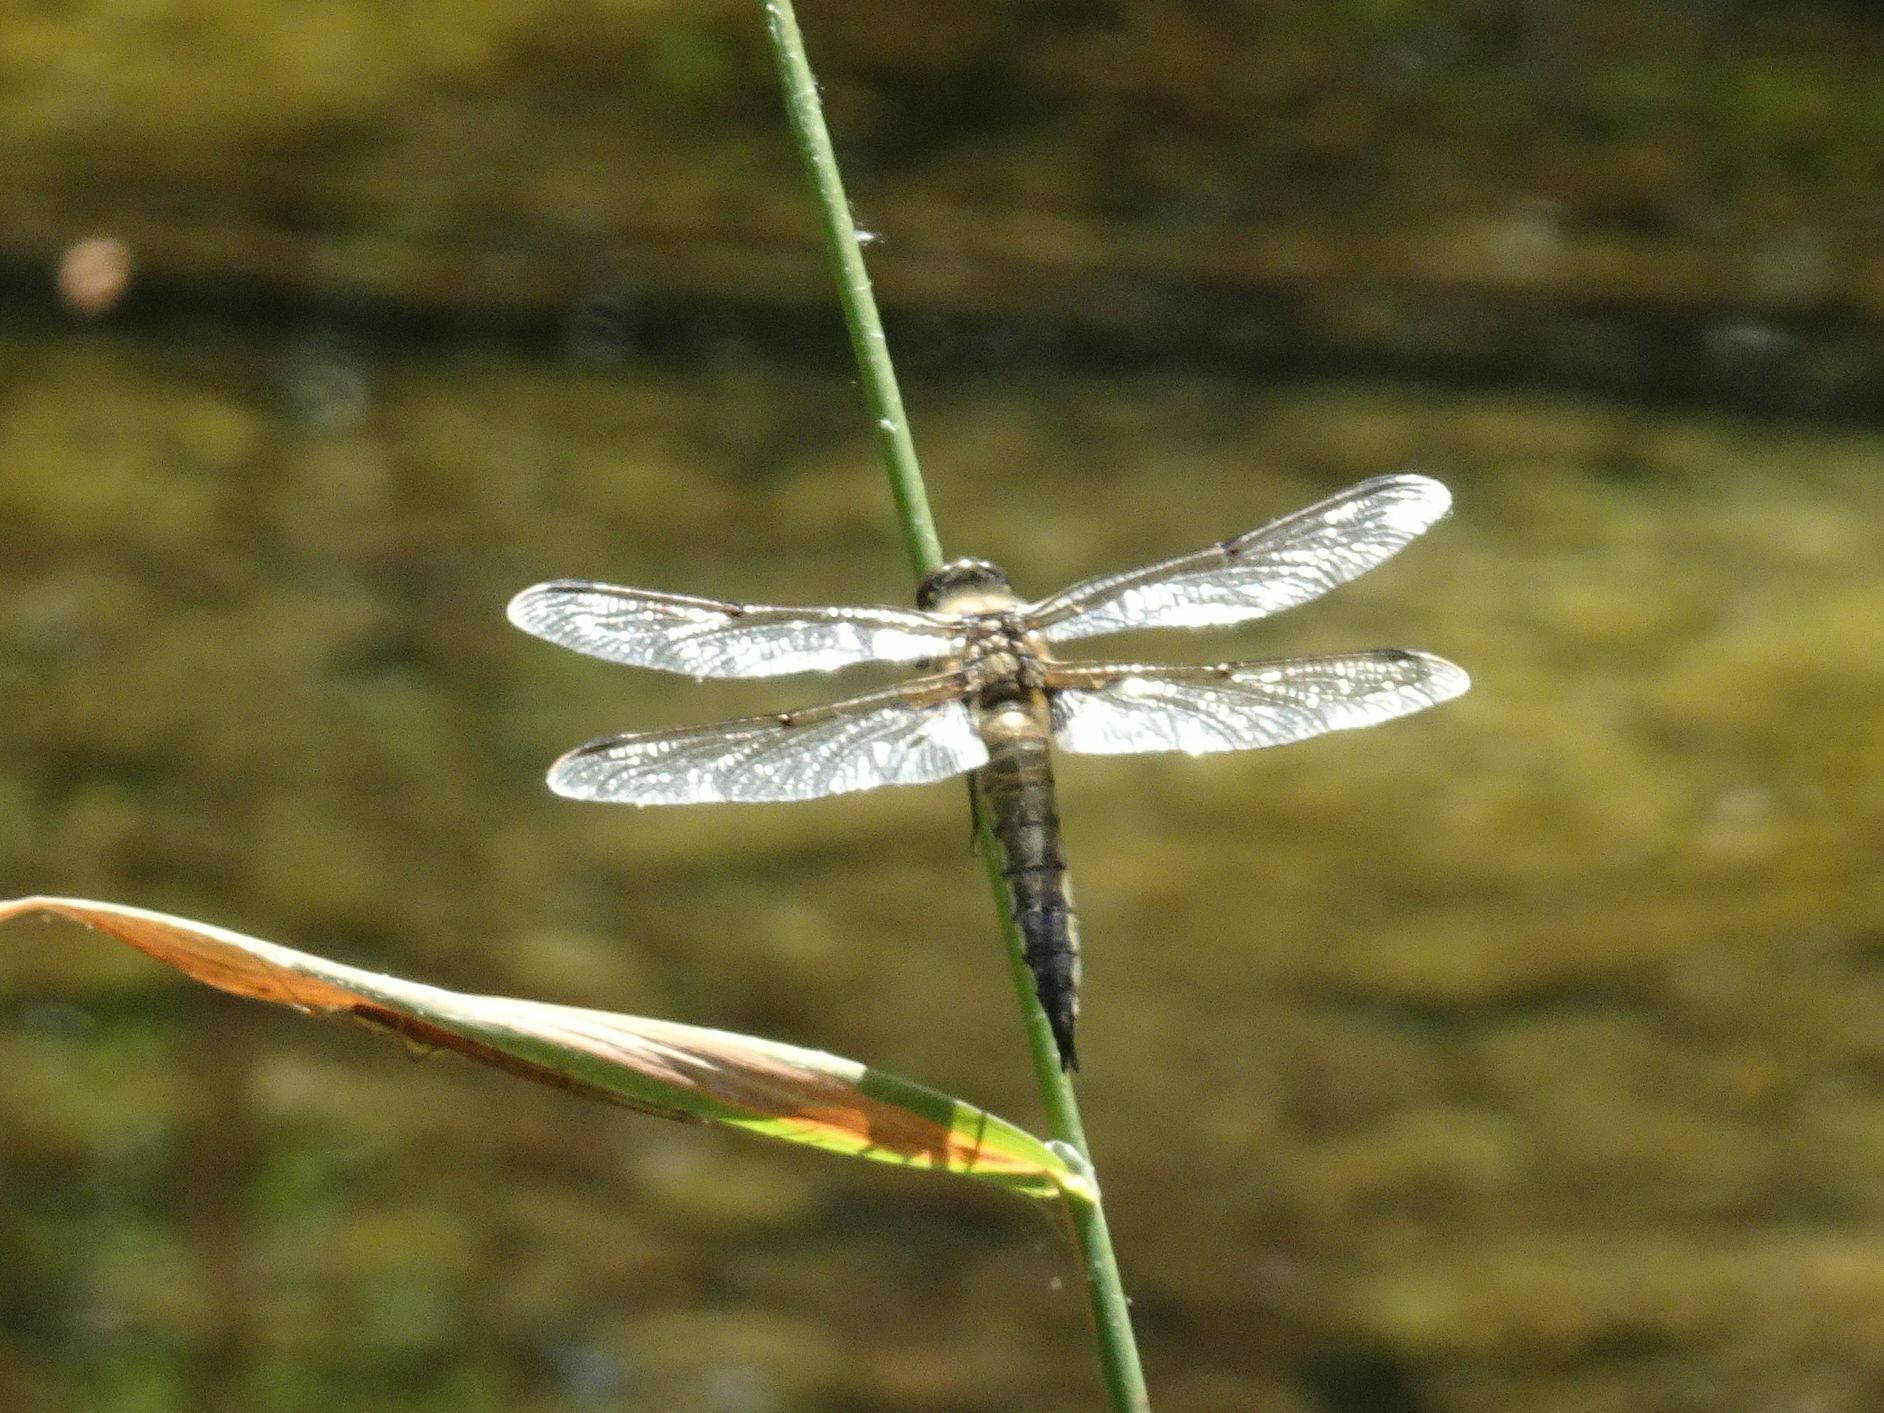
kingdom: Animalia
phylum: Arthropoda
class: Insecta
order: Odonata
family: Libellulidae
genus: Libellula
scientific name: Libellula quadrimaculata
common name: Four-spotted chaser
